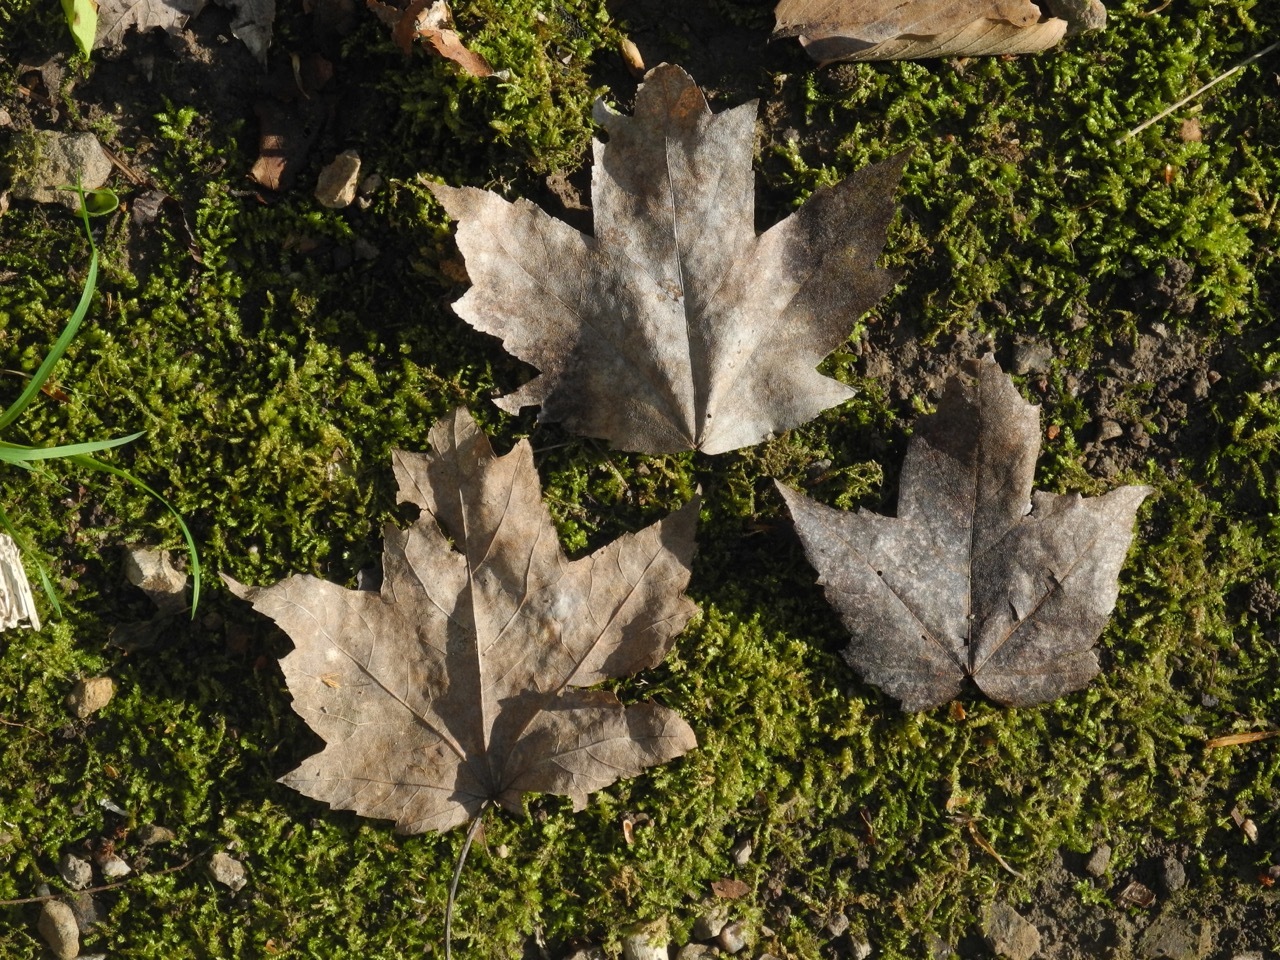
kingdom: Plantae
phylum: Tracheophyta
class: Magnoliopsida
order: Sapindales
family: Sapindaceae
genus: Acer
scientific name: Acer freemanii
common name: Freeman maple
